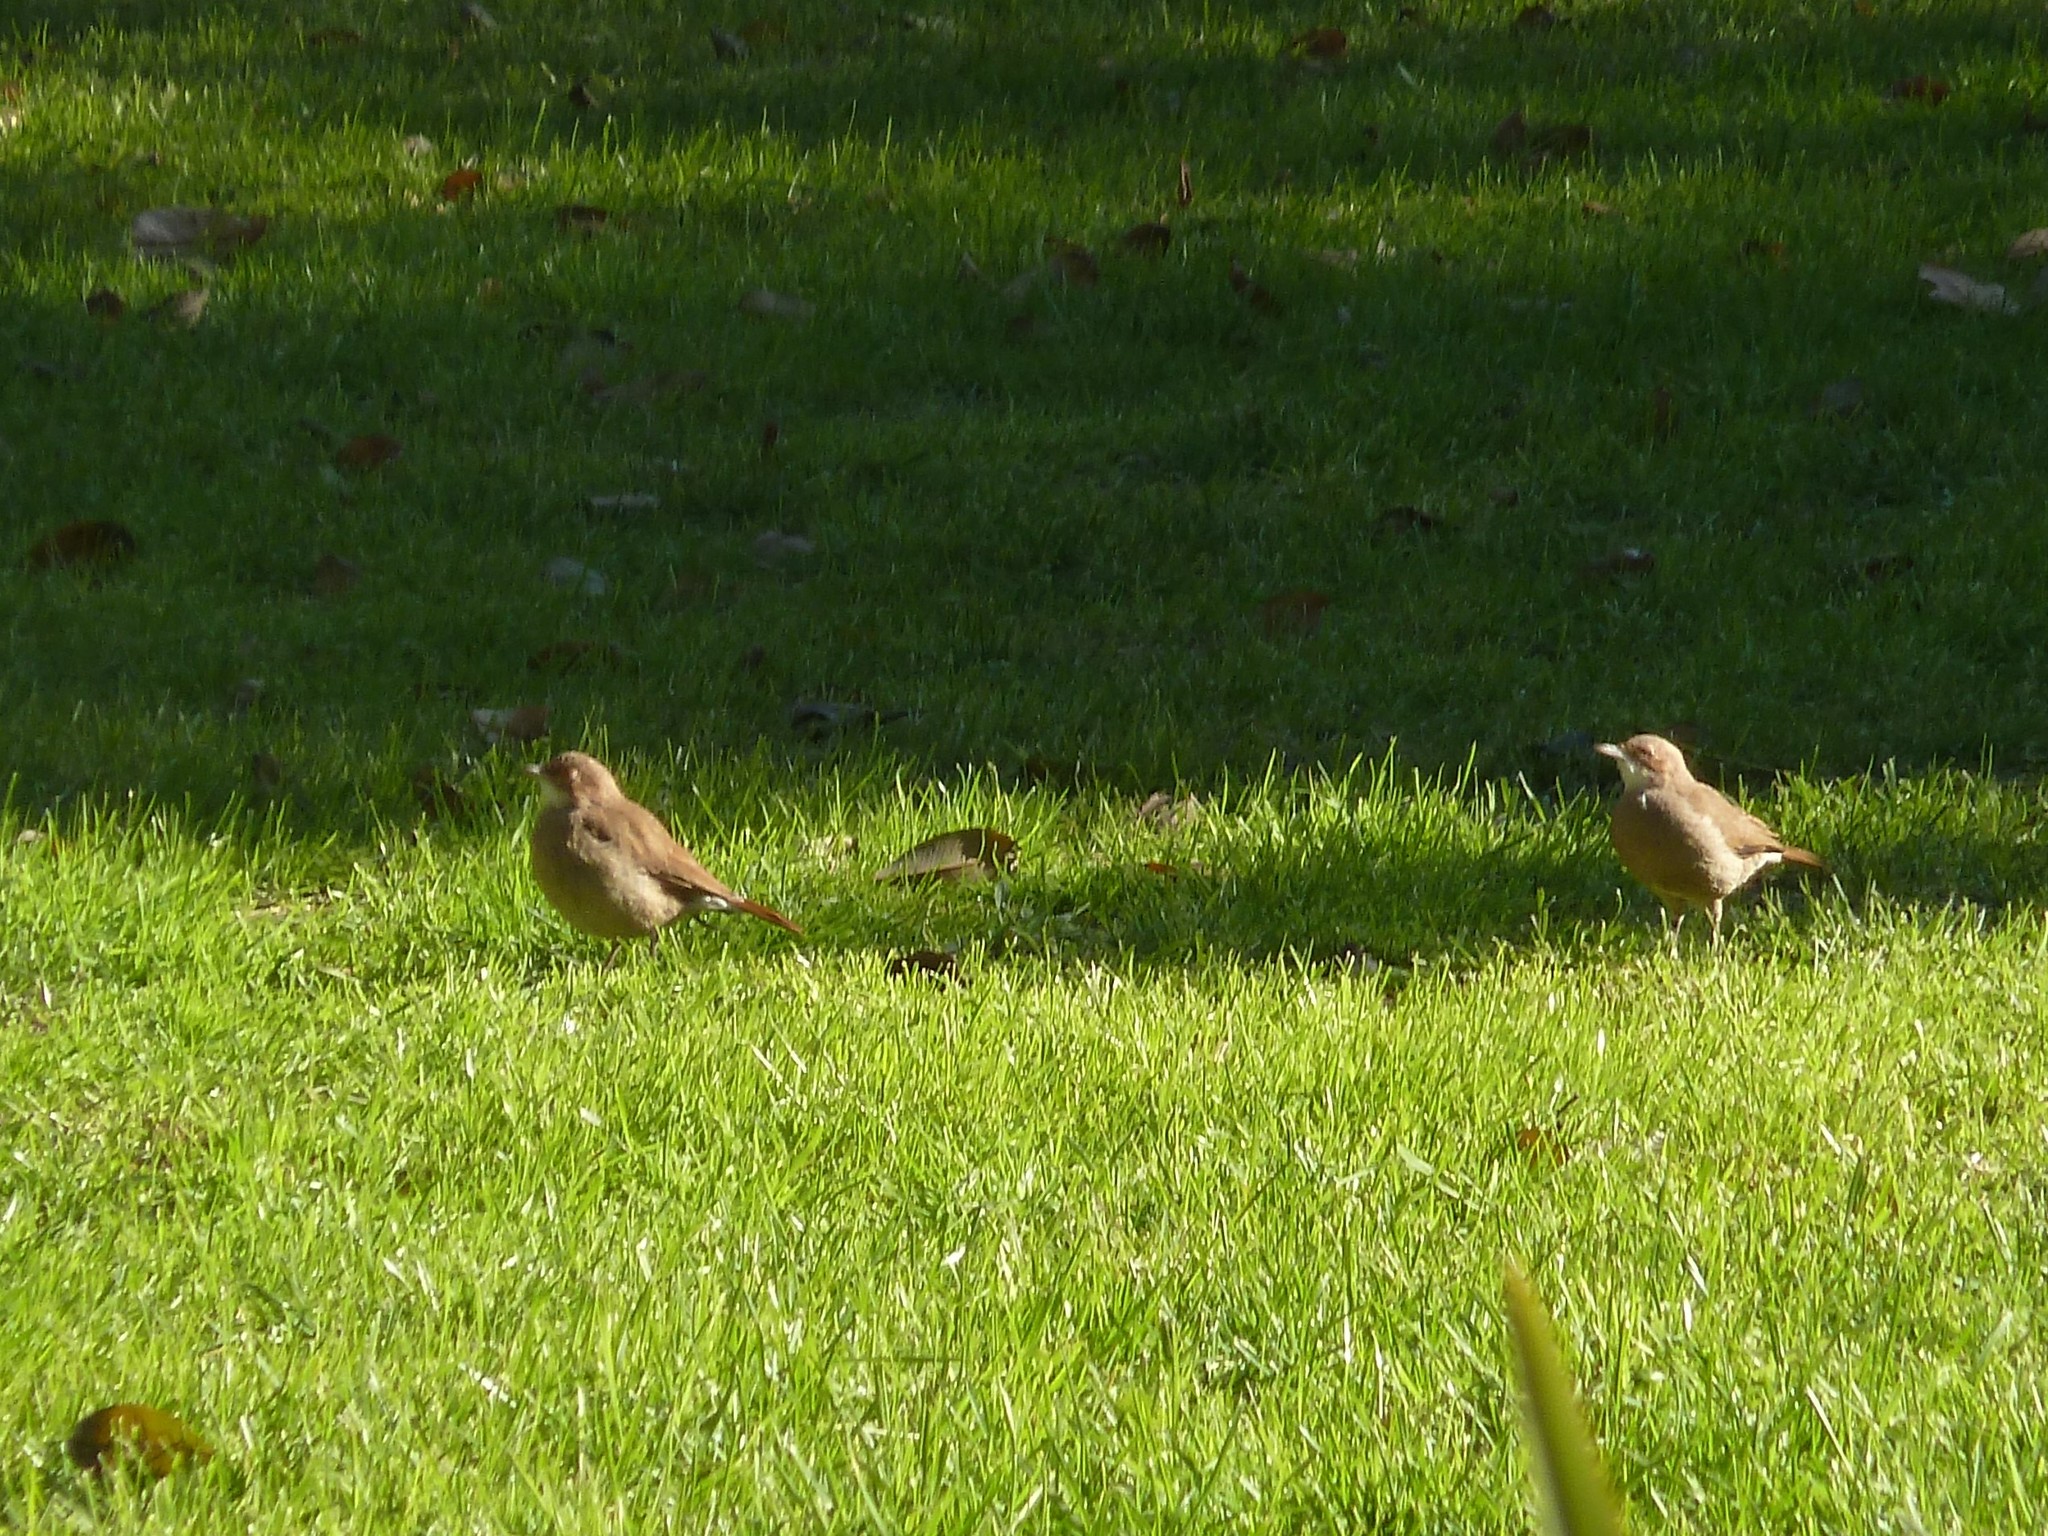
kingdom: Animalia
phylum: Chordata
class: Aves
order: Passeriformes
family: Furnariidae
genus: Furnarius
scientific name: Furnarius rufus
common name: Rufous hornero
